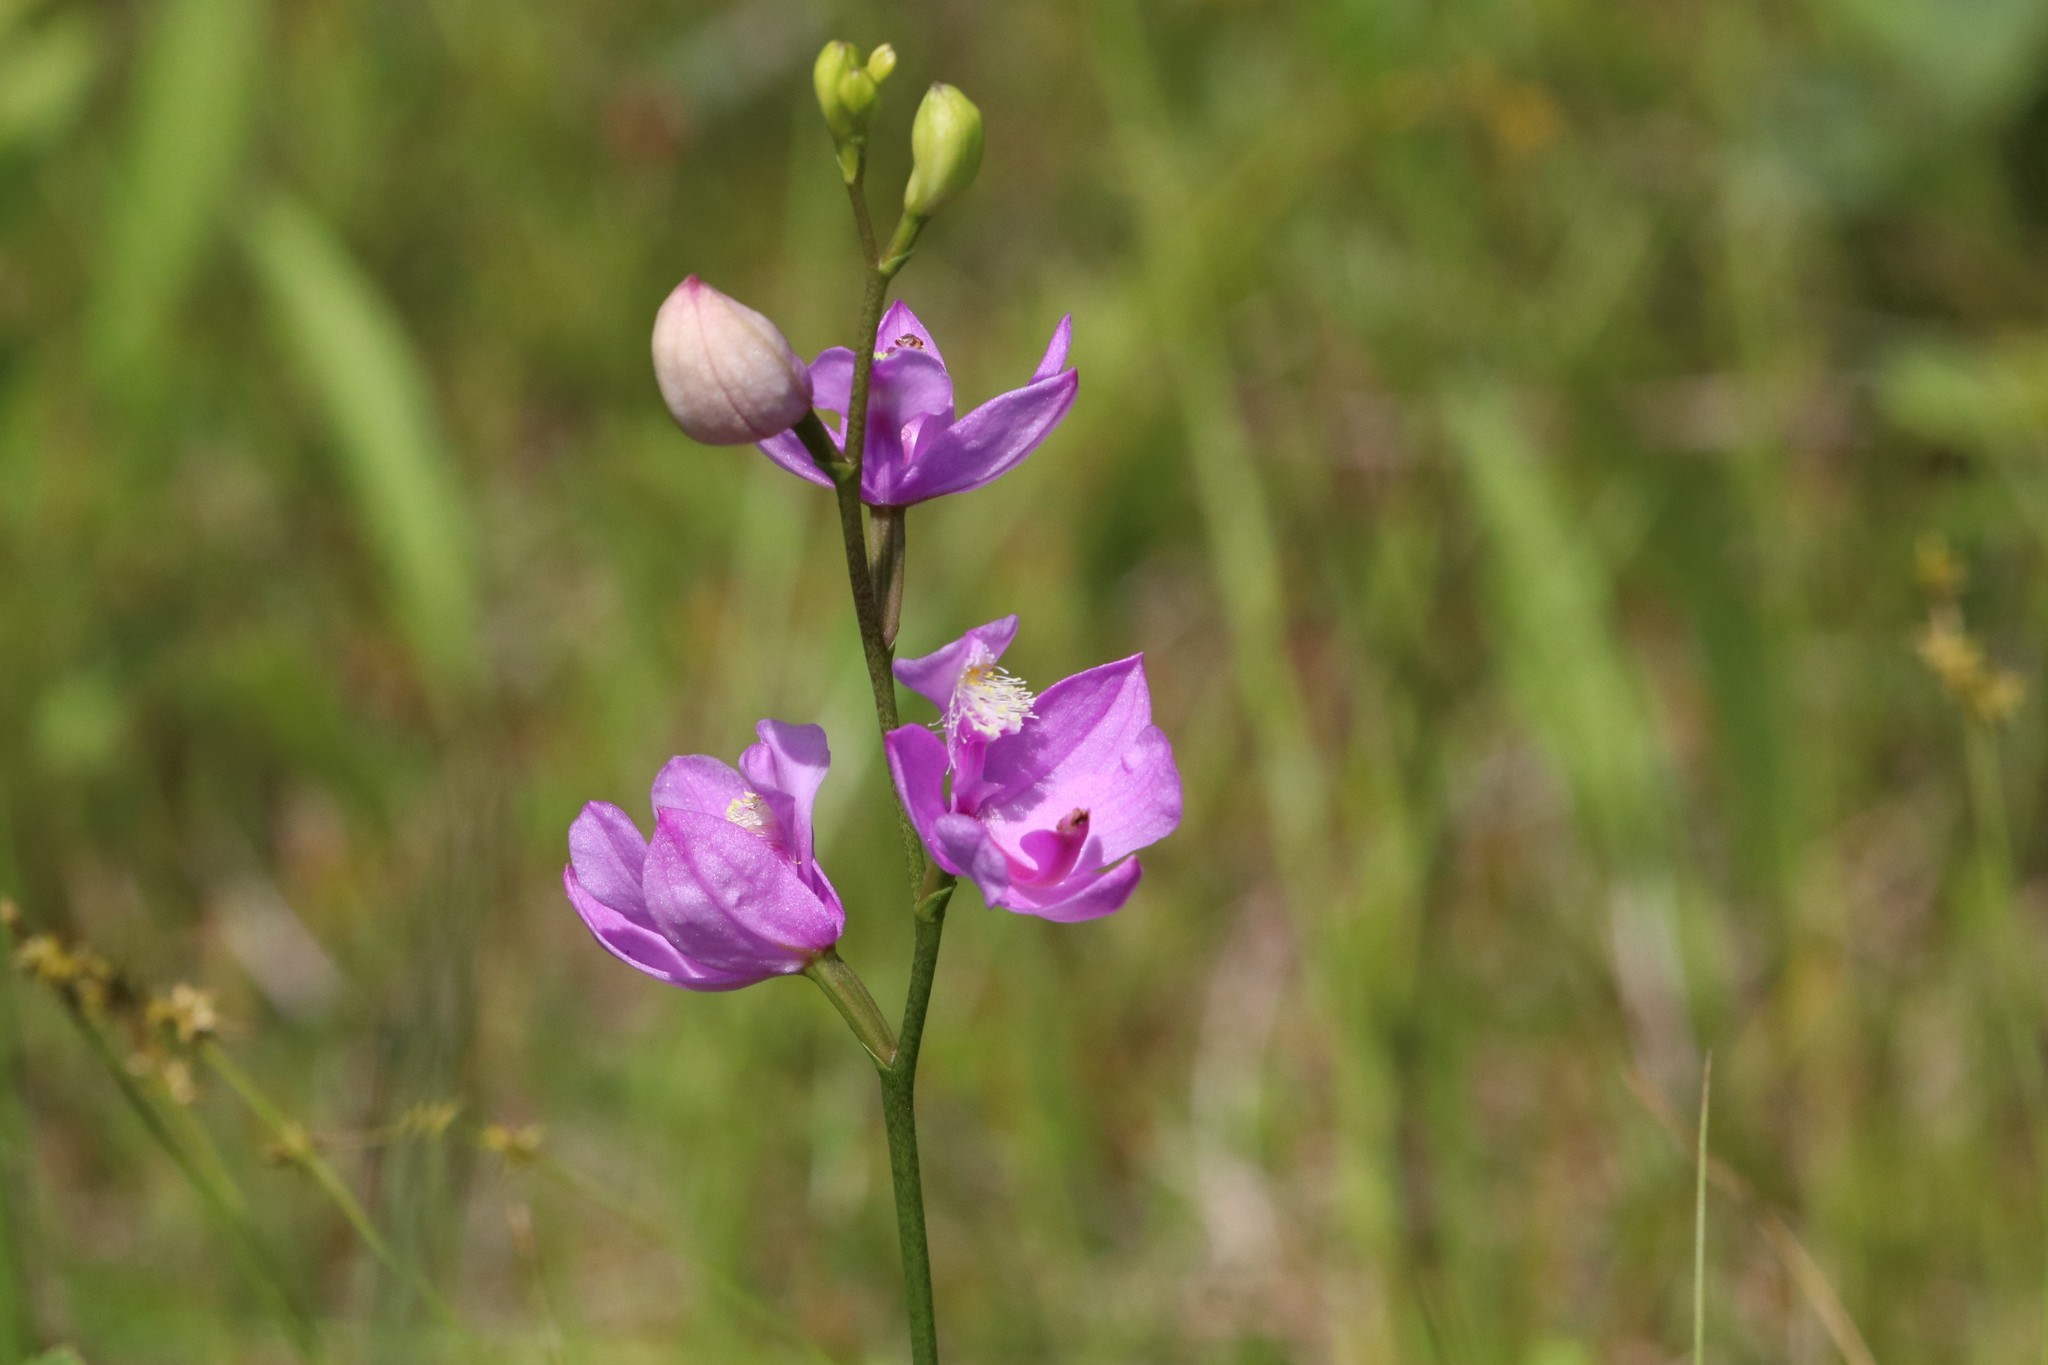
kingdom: Plantae
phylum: Tracheophyta
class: Liliopsida
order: Asparagales
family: Orchidaceae
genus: Calopogon
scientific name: Calopogon tuberosus
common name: Grass-pink
